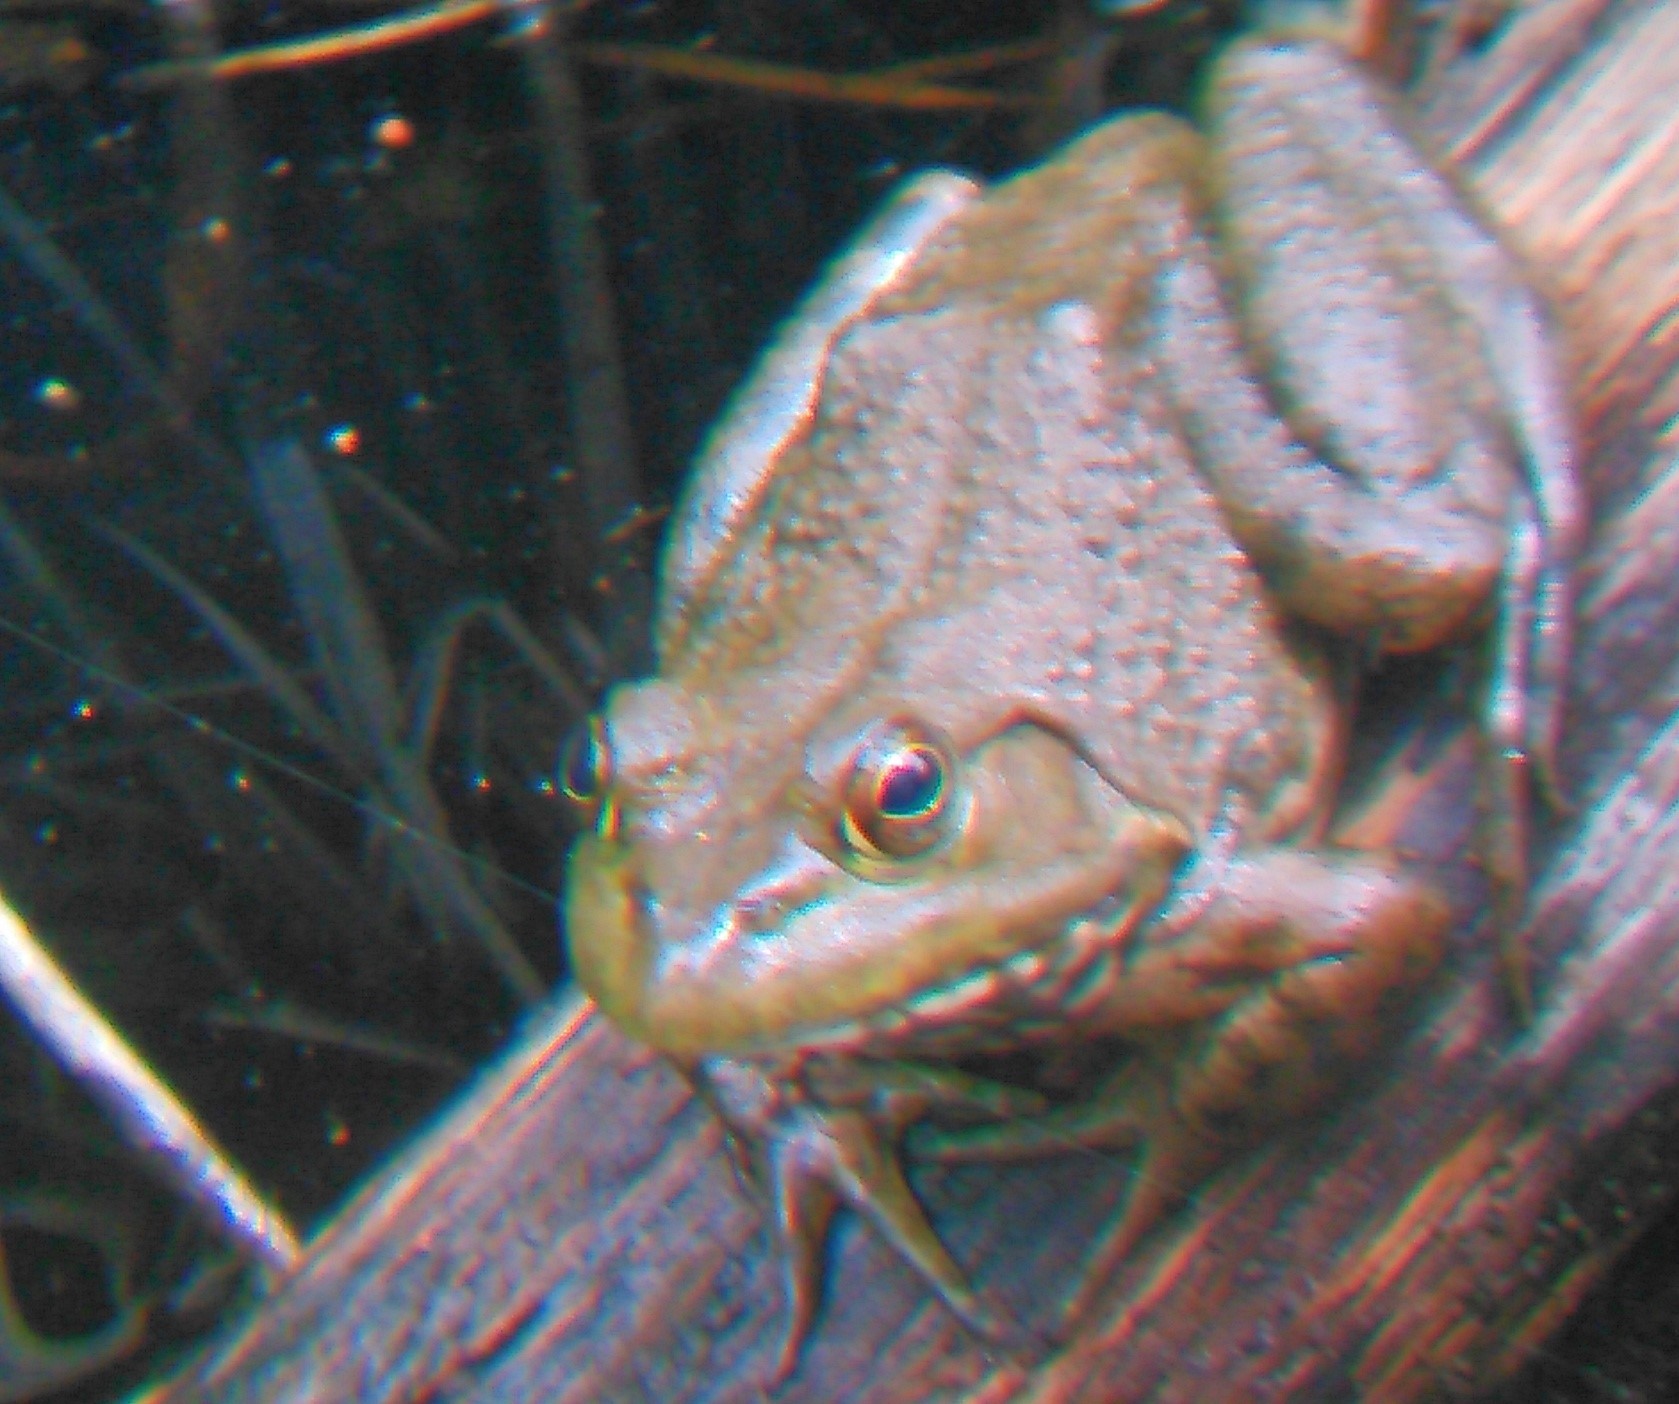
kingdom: Animalia
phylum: Chordata
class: Amphibia
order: Anura
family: Ranidae
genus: Lithobates
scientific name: Lithobates catesbeianus
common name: American bullfrog
